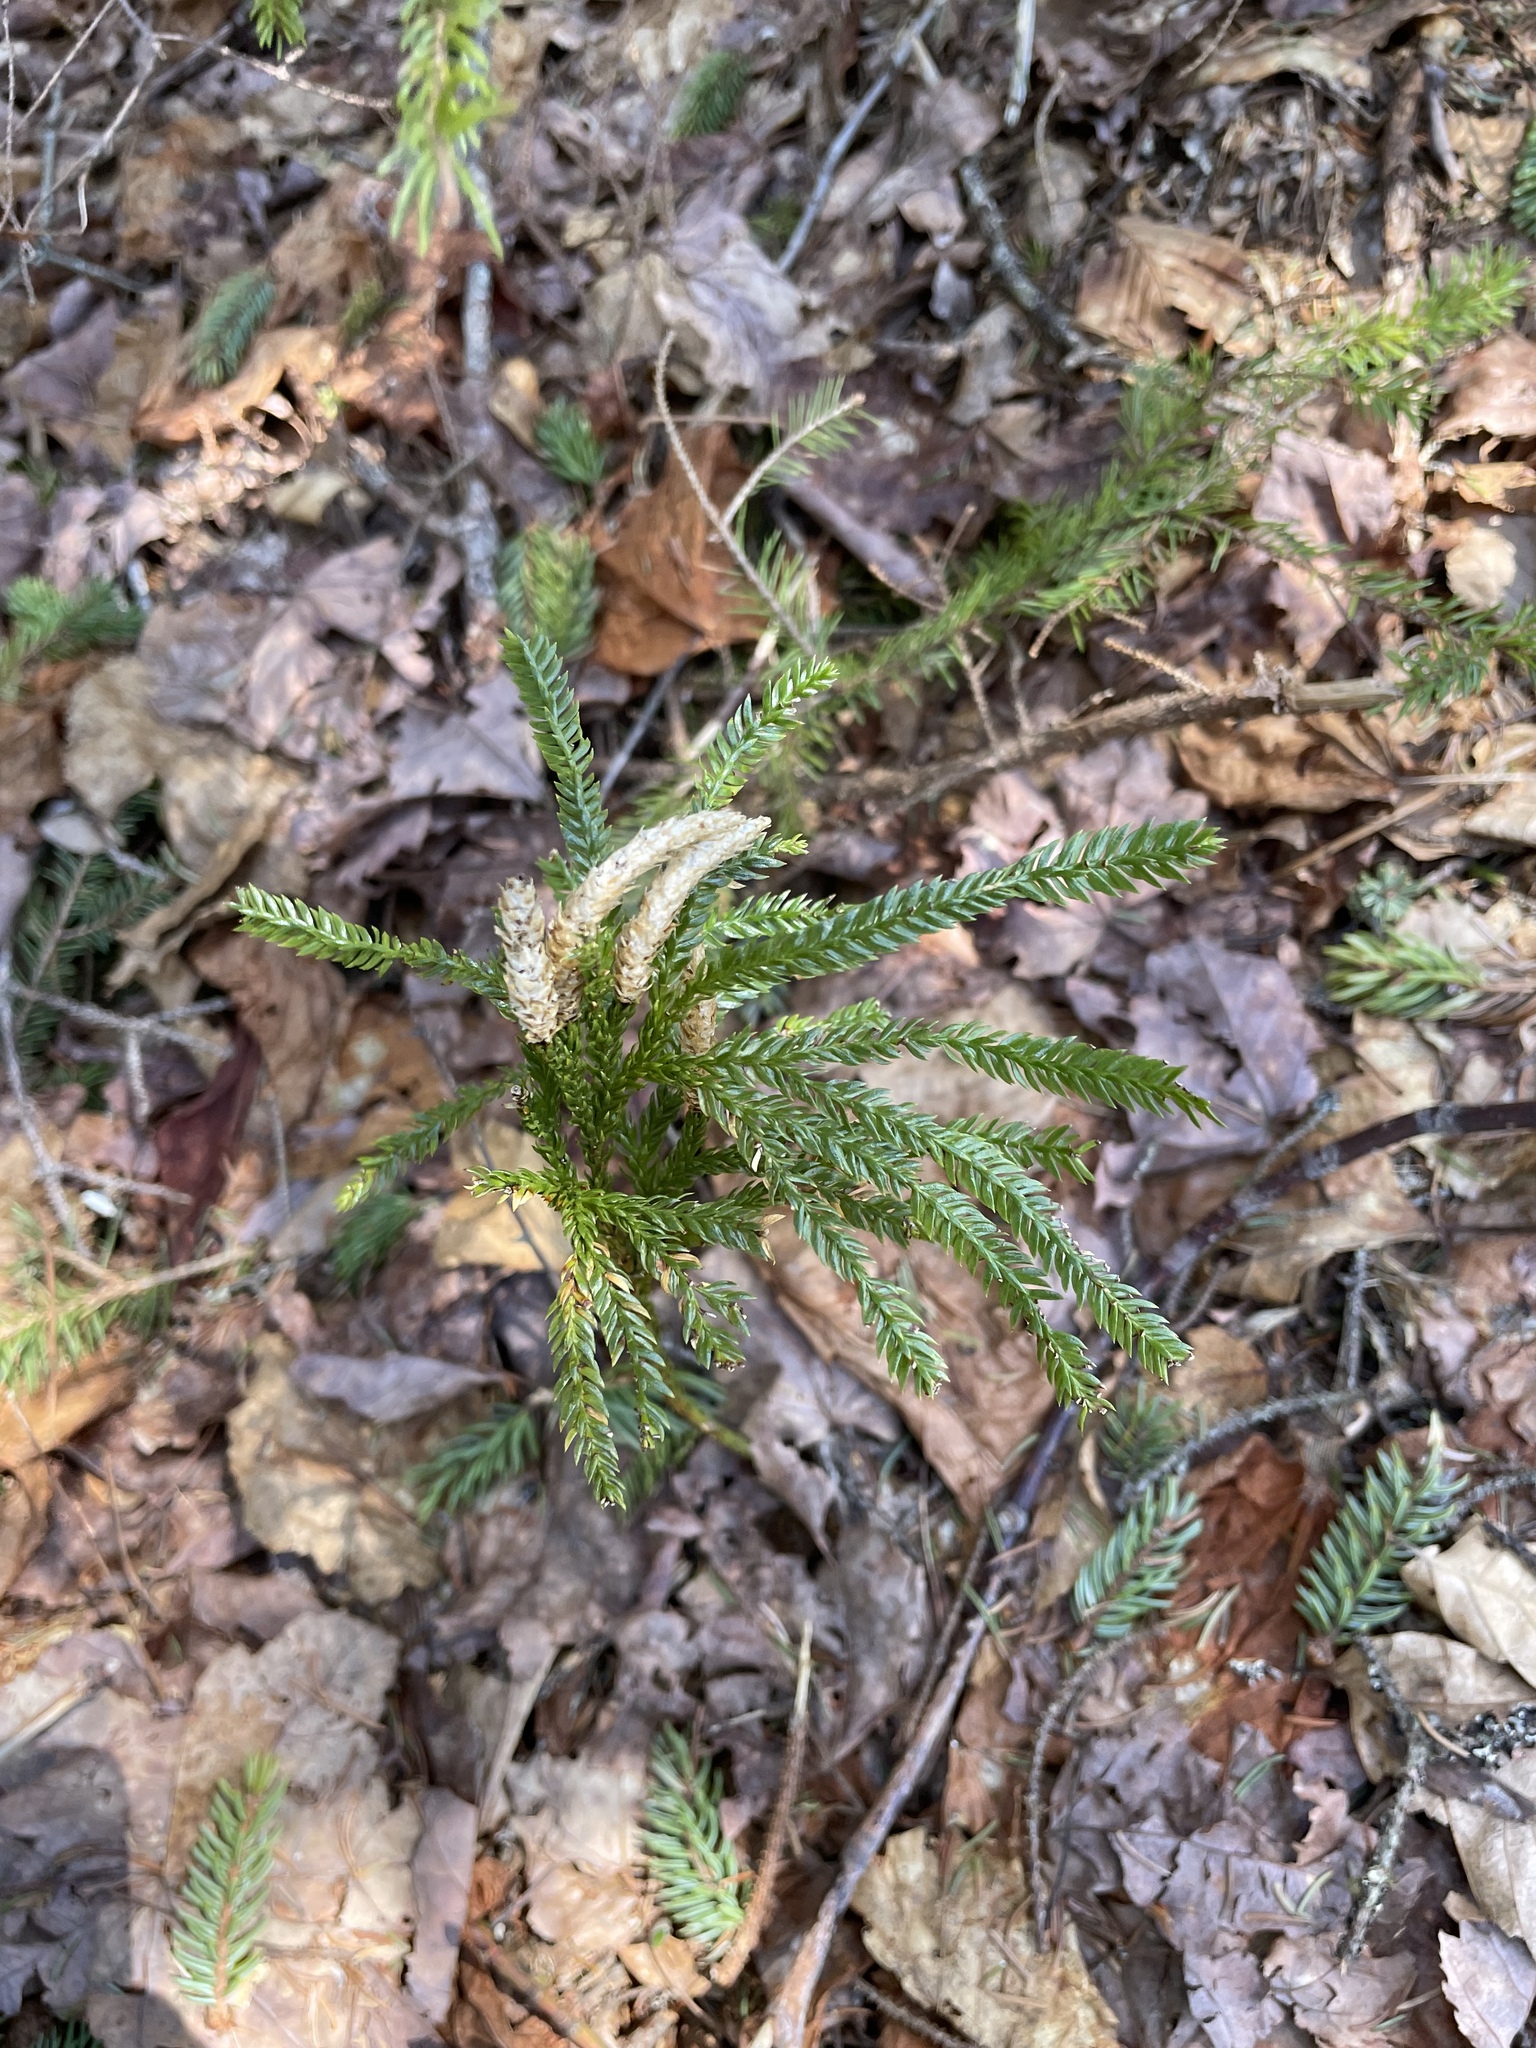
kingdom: Plantae
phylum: Tracheophyta
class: Lycopodiopsida
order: Lycopodiales
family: Lycopodiaceae
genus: Dendrolycopodium
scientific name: Dendrolycopodium obscurum
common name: Common ground-pine
